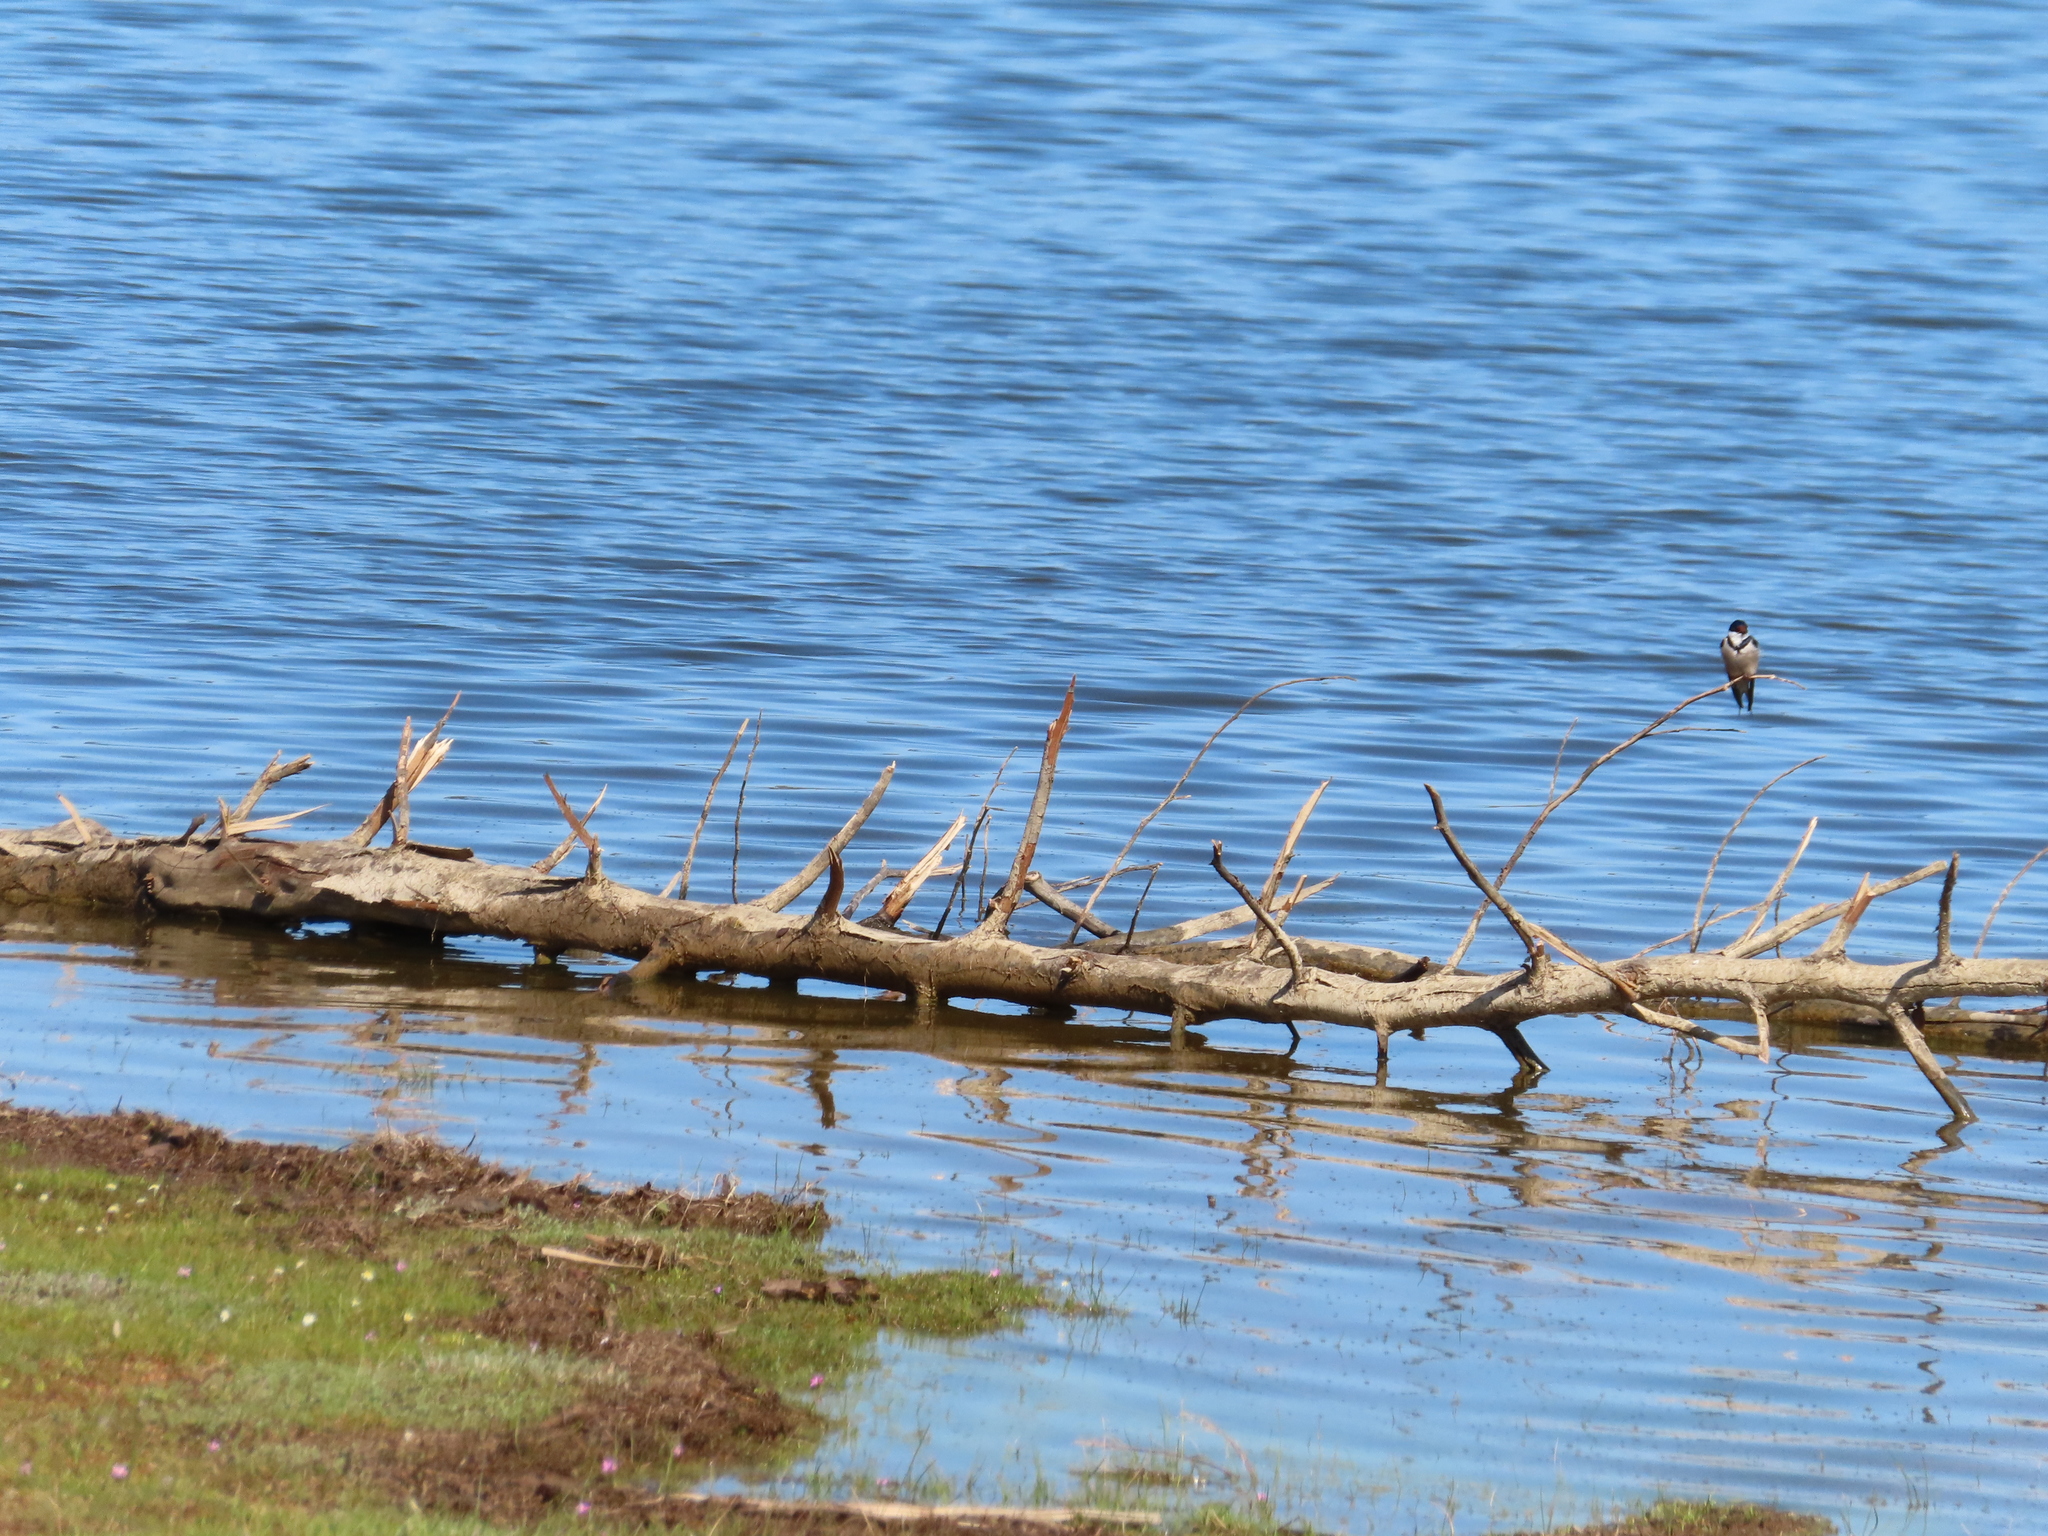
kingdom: Animalia
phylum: Chordata
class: Aves
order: Passeriformes
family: Hirundinidae
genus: Hirundo
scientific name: Hirundo albigularis
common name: White-throated swallow
